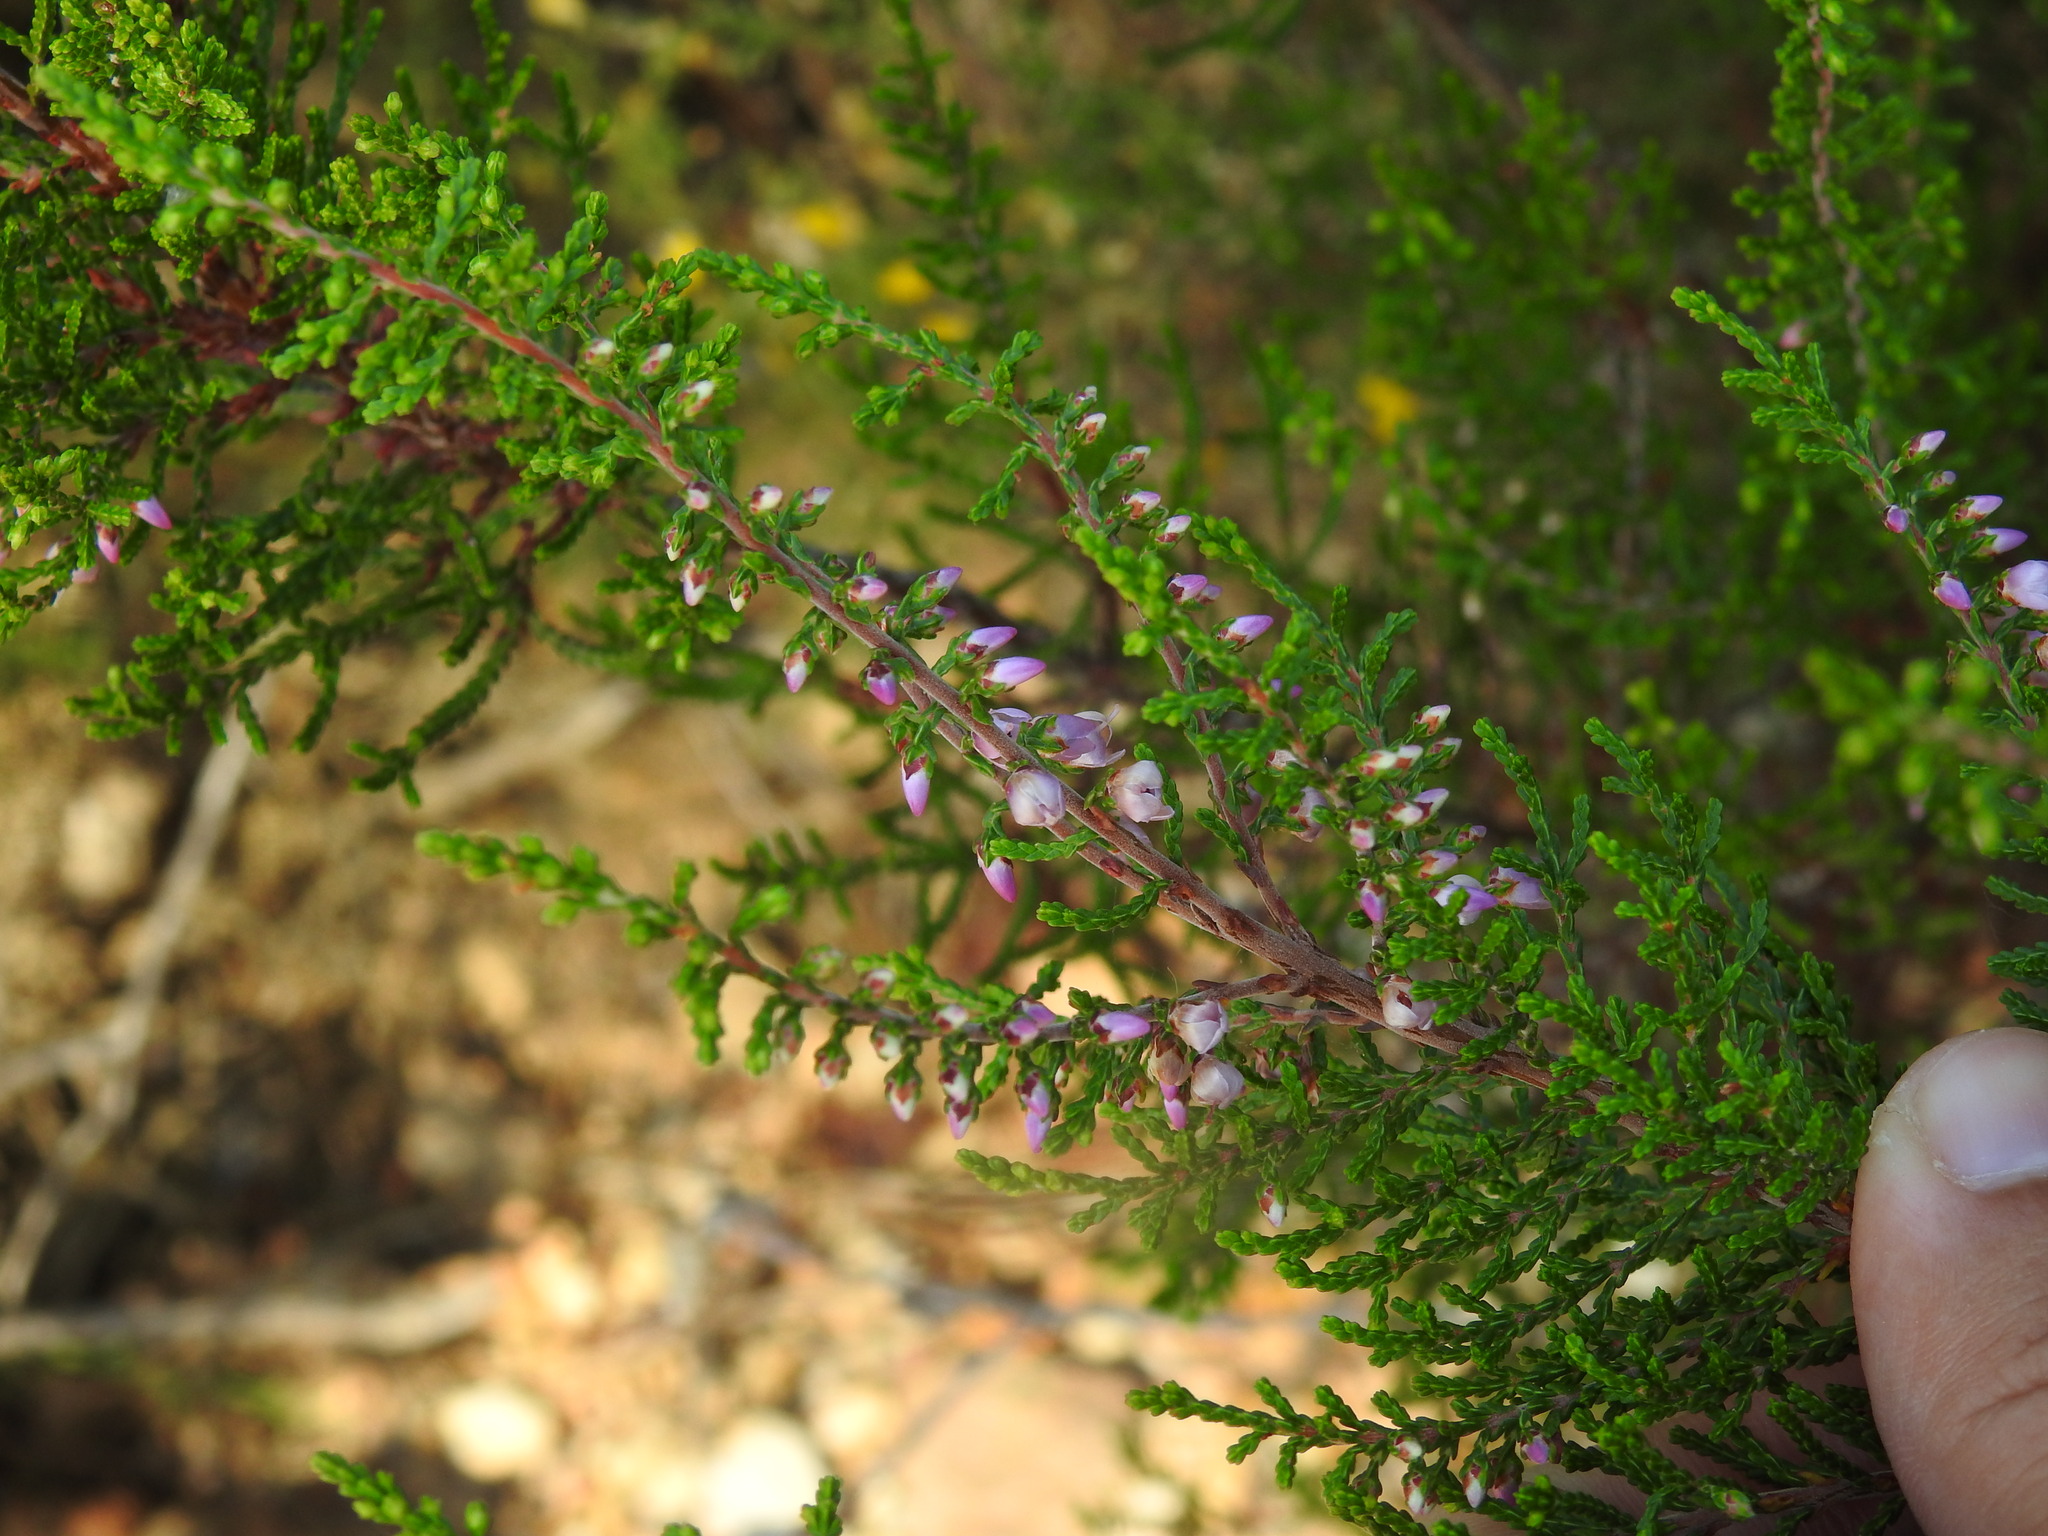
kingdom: Plantae
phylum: Tracheophyta
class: Magnoliopsida
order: Ericales
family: Ericaceae
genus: Calluna
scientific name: Calluna vulgaris
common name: Heather
